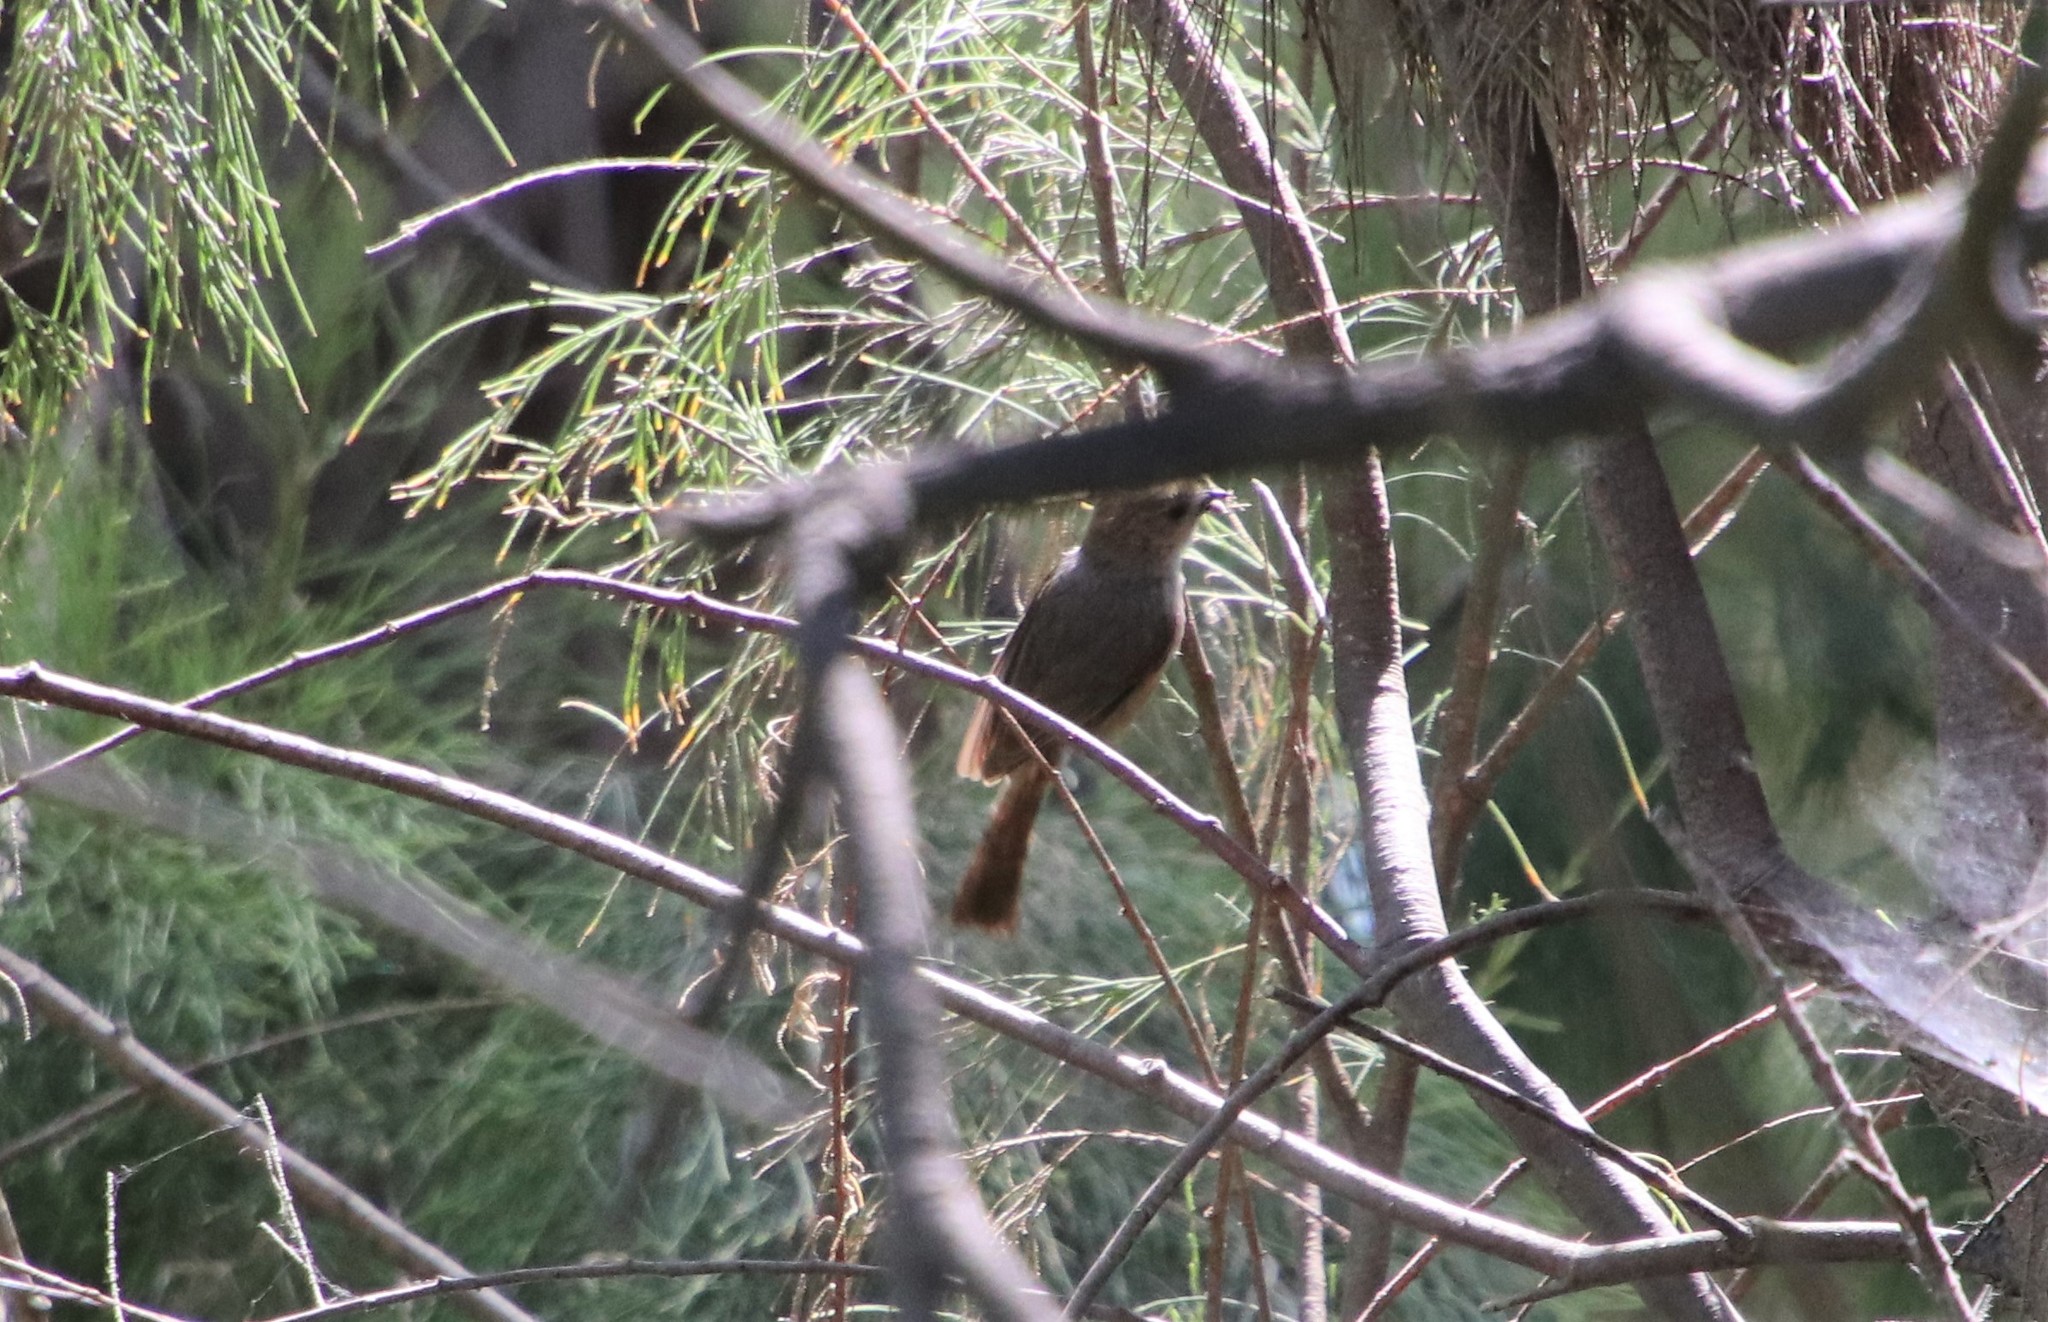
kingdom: Animalia
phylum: Chordata
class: Aves
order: Passeriformes
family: Aegithalidae
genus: Psaltriparus
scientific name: Psaltriparus minimus
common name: American bushtit
